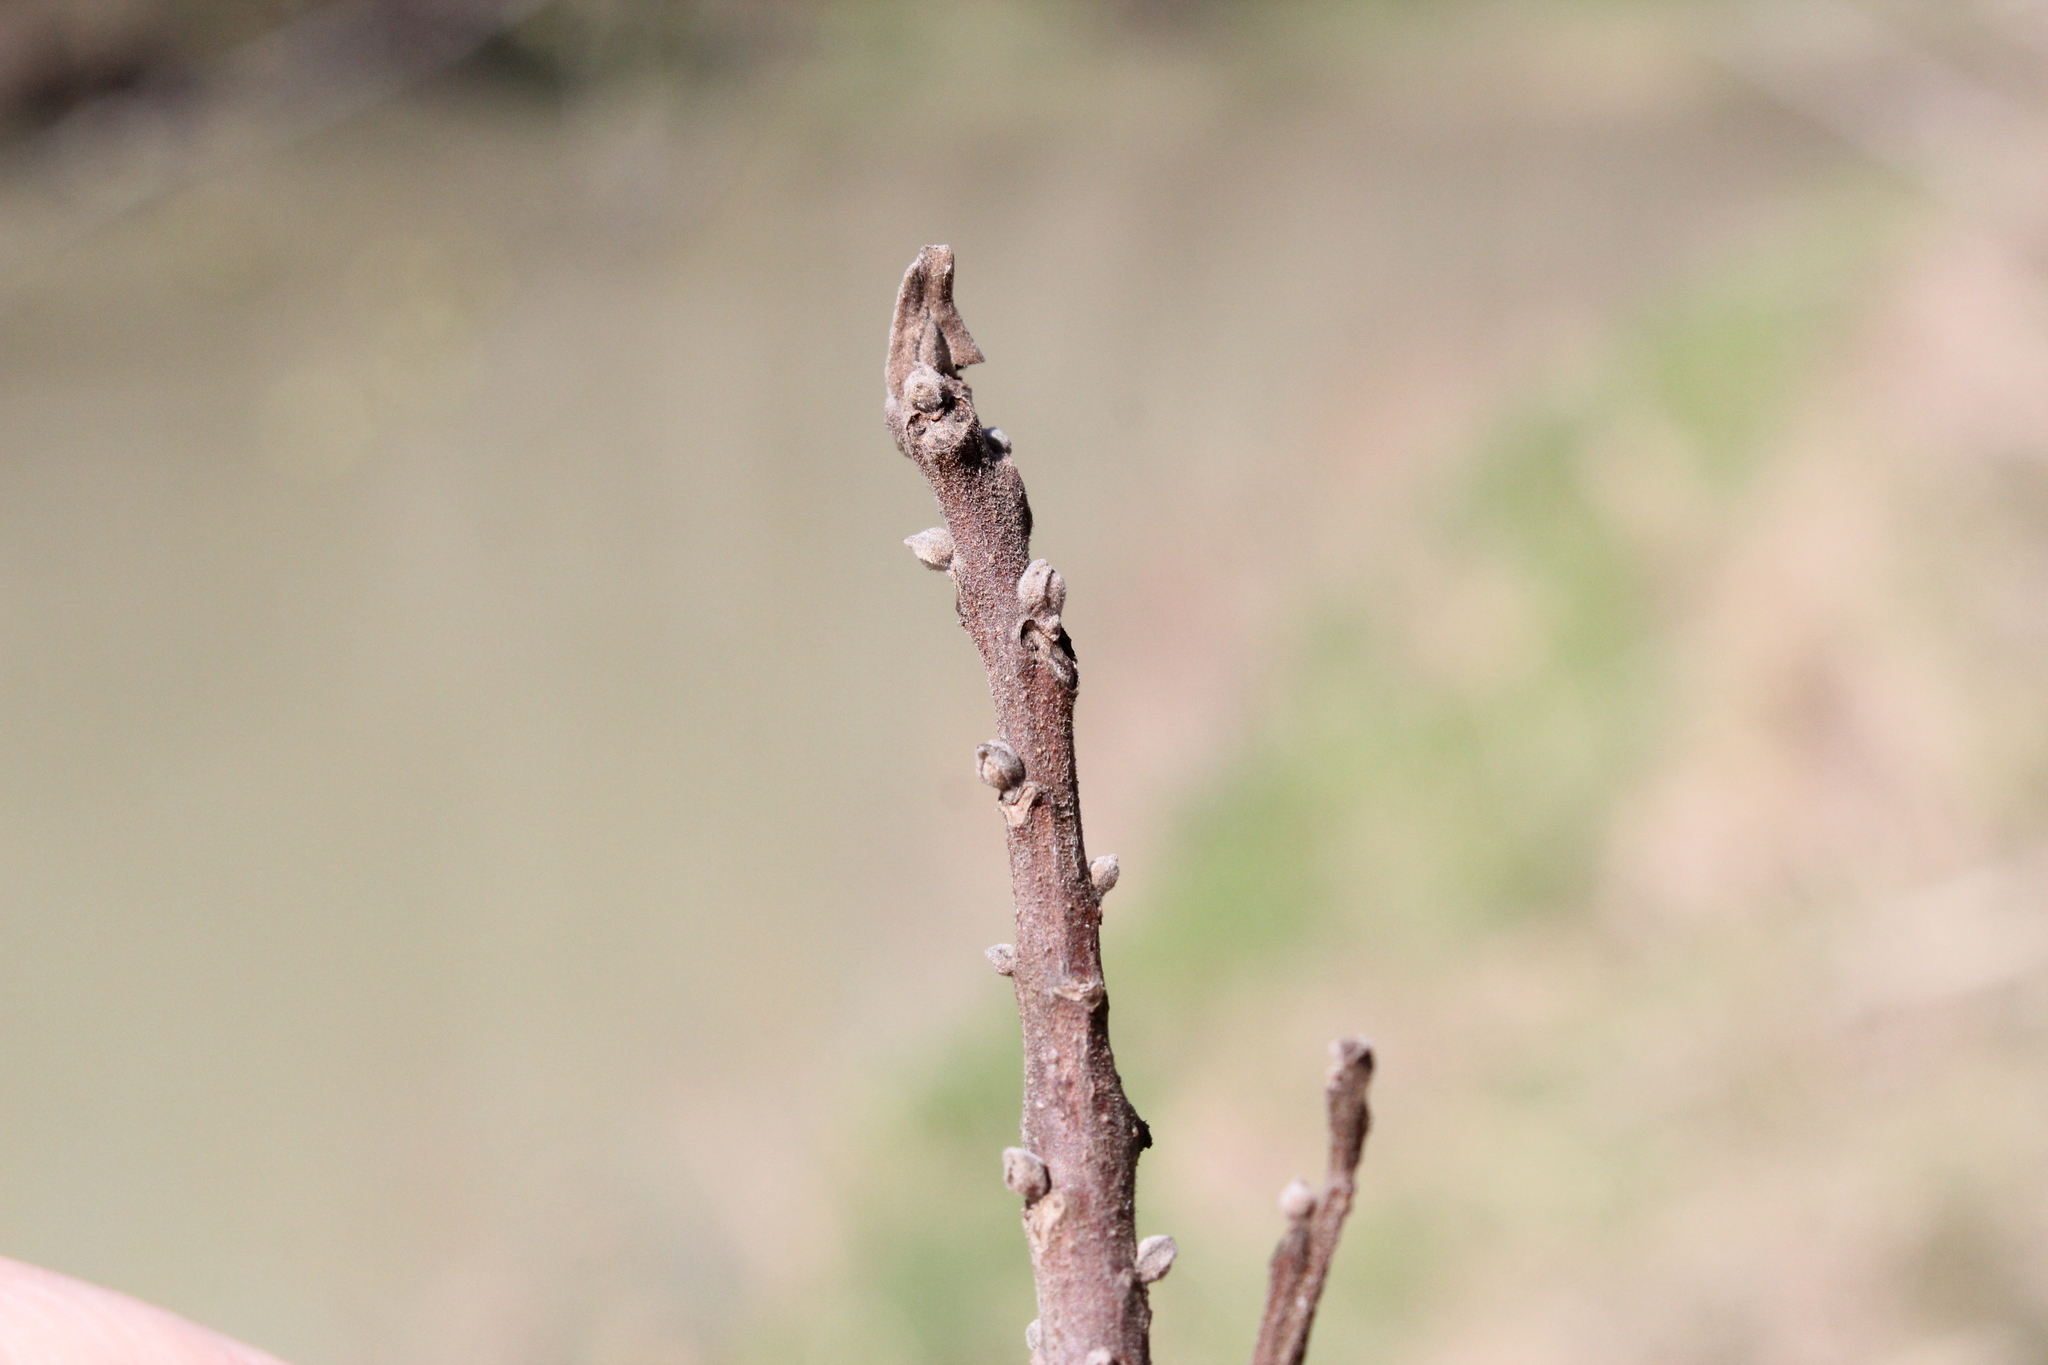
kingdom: Plantae
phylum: Tracheophyta
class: Magnoliopsida
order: Fagales
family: Juglandaceae
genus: Juglans
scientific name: Juglans nigra
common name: Black walnut
